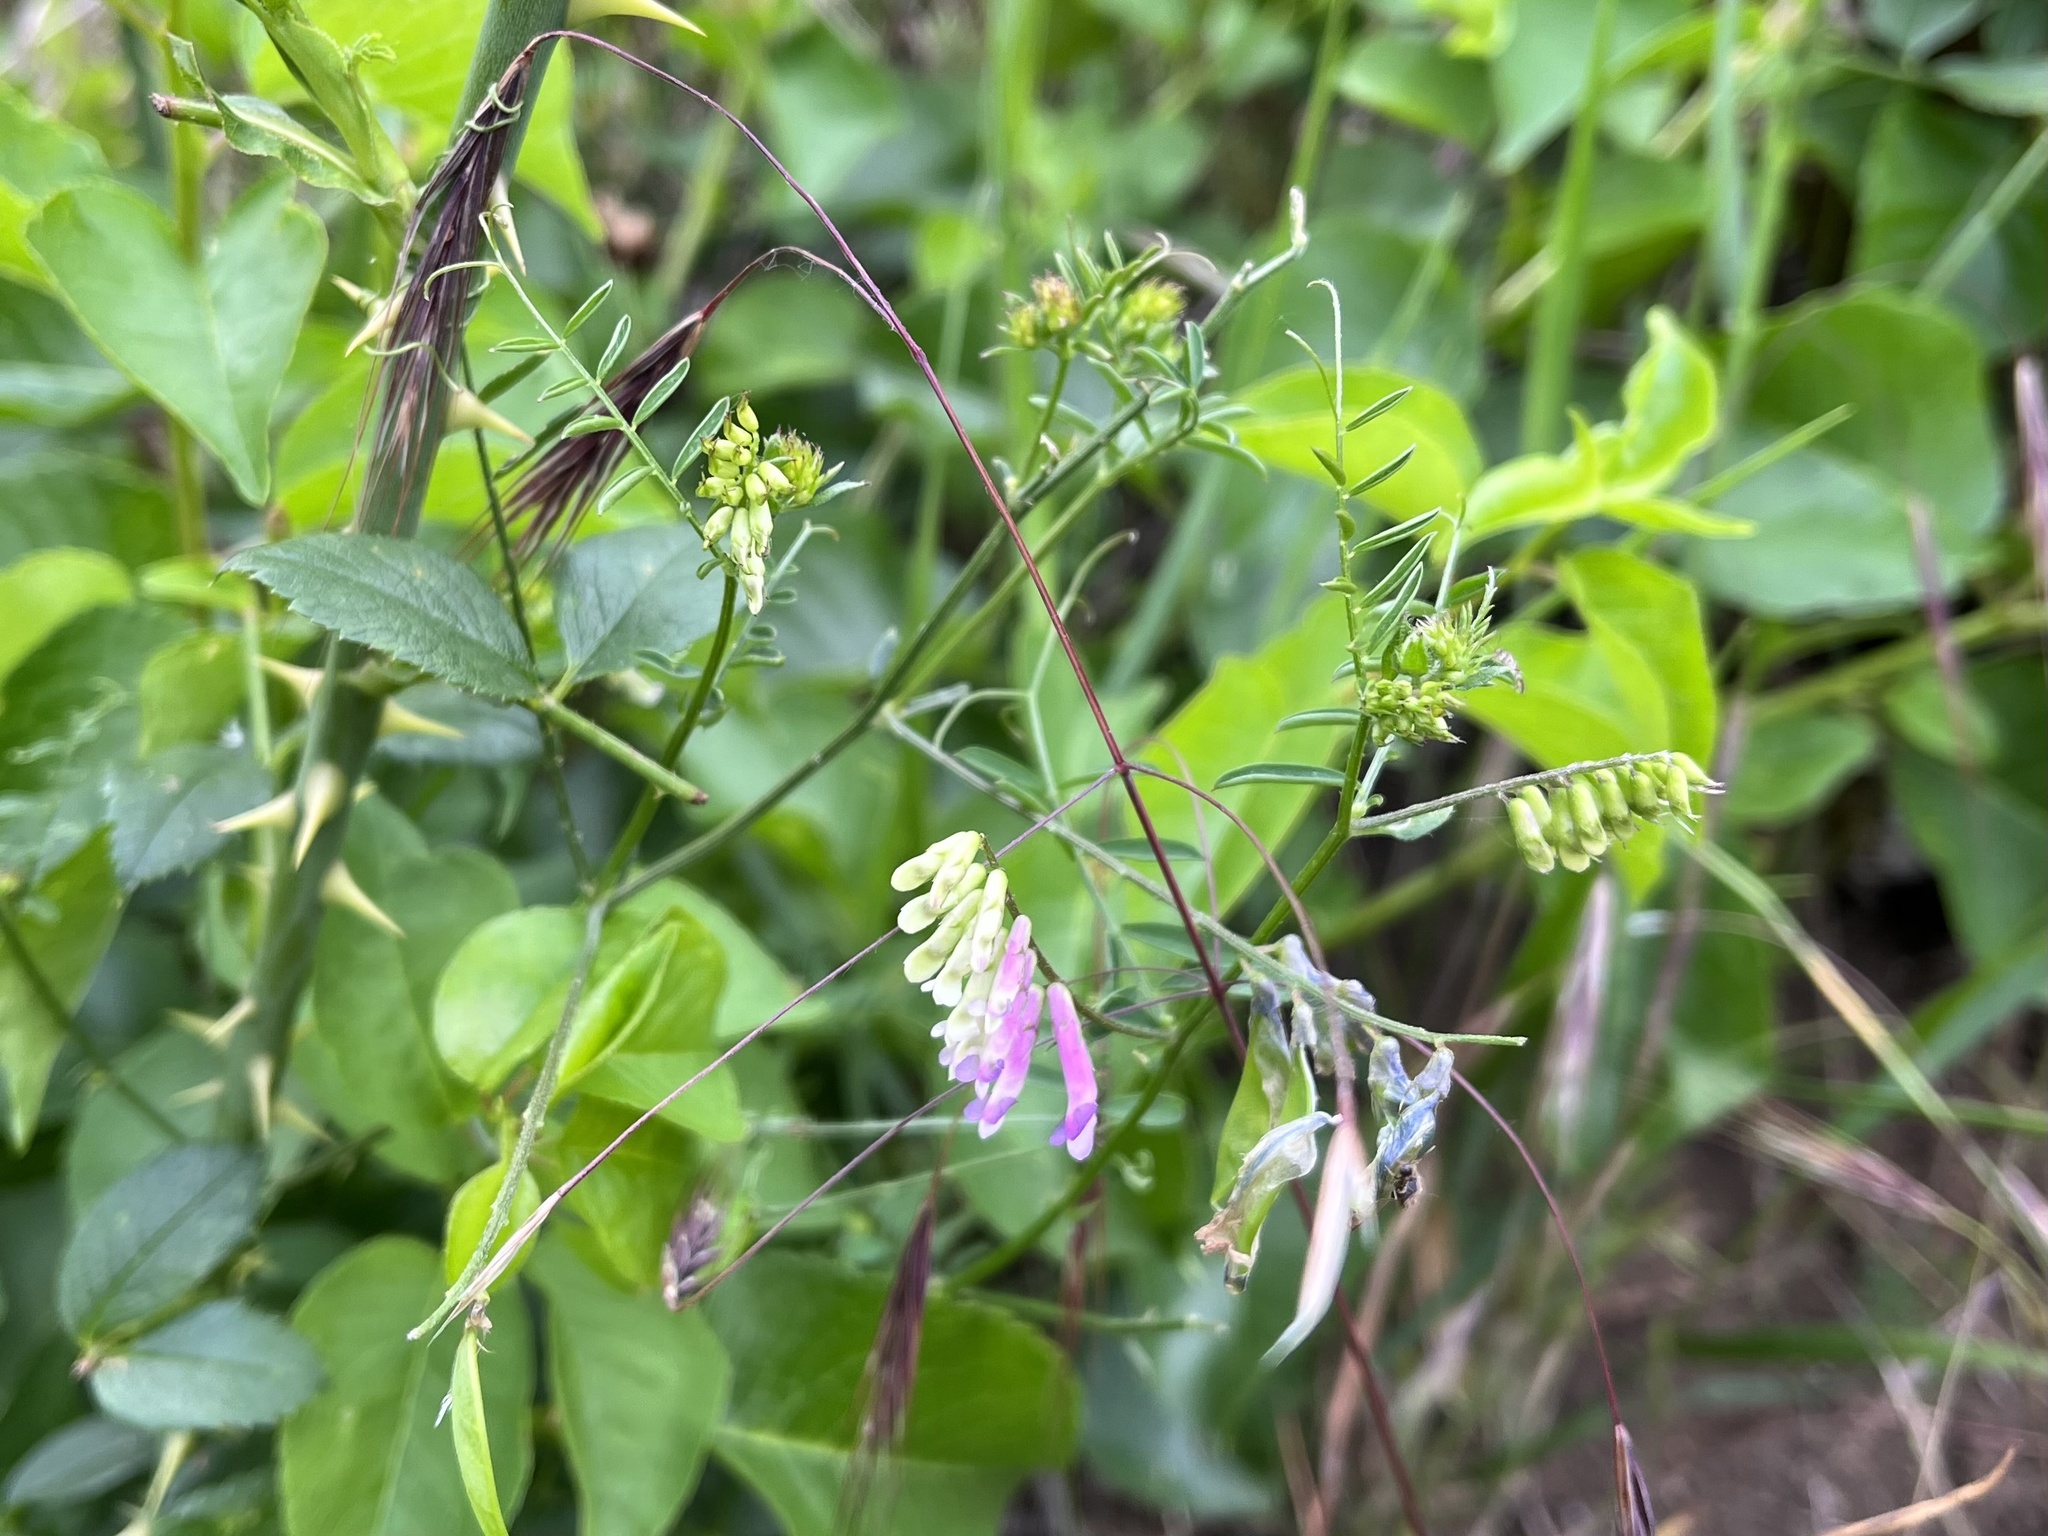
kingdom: Plantae
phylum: Tracheophyta
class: Magnoliopsida
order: Fabales
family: Fabaceae
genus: Vicia
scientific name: Vicia villosa
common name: Fodder vetch
